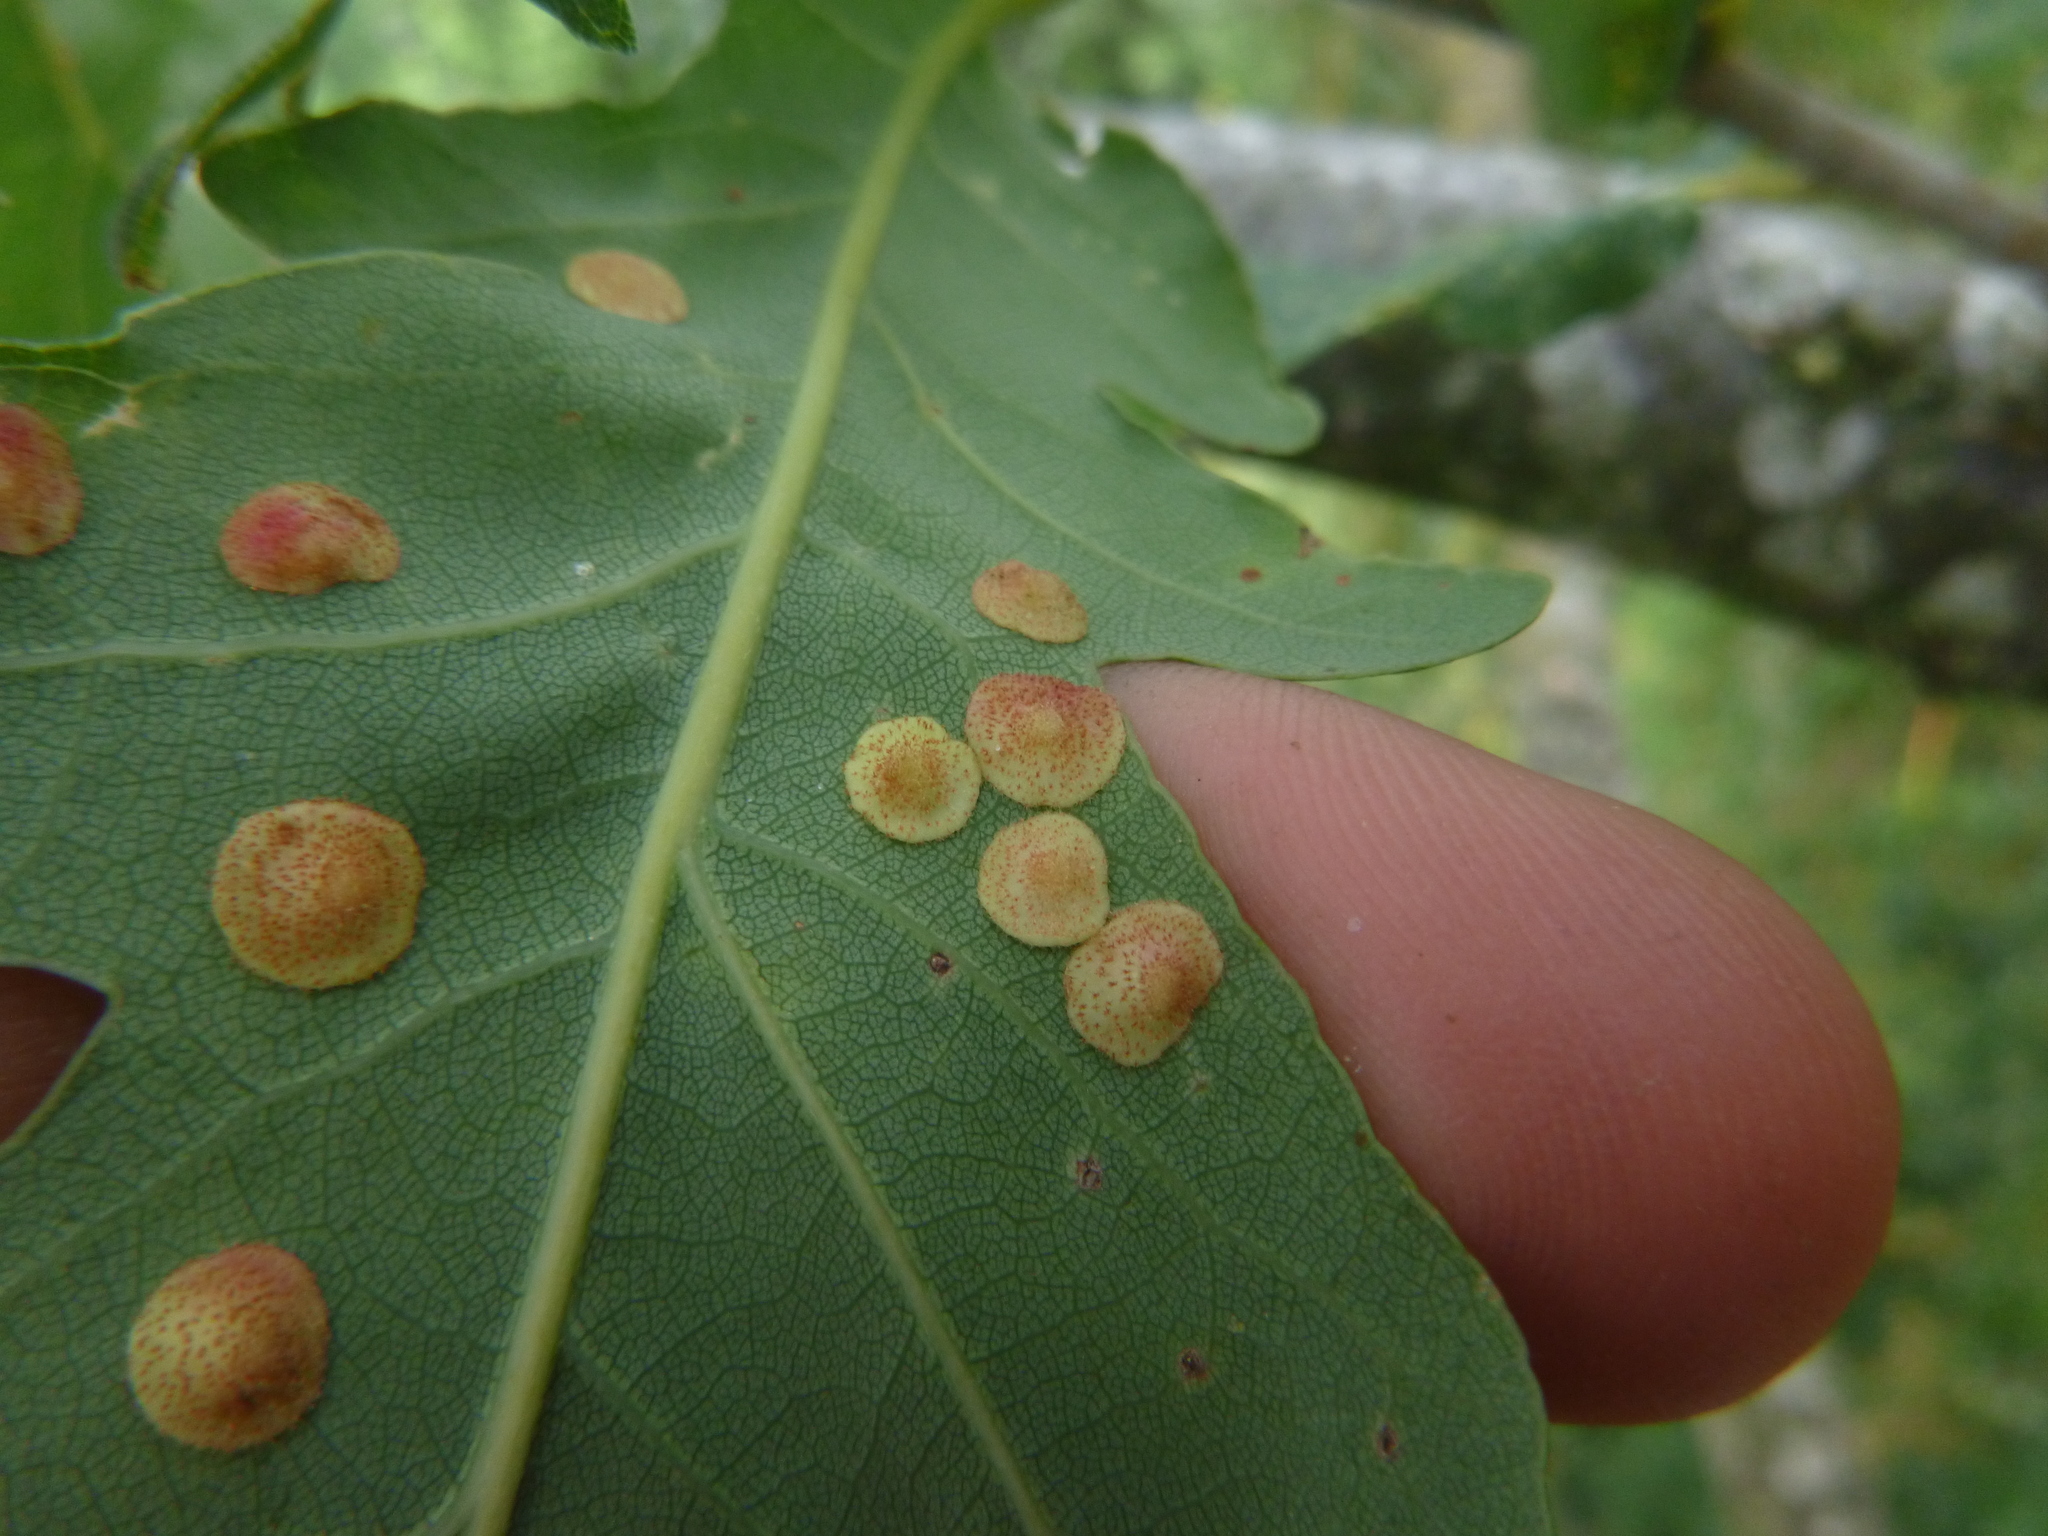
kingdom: Animalia
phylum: Arthropoda
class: Insecta
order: Hymenoptera
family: Cynipidae
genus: Neuroterus
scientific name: Neuroterus quercusbaccarum
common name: Common spangle gall
